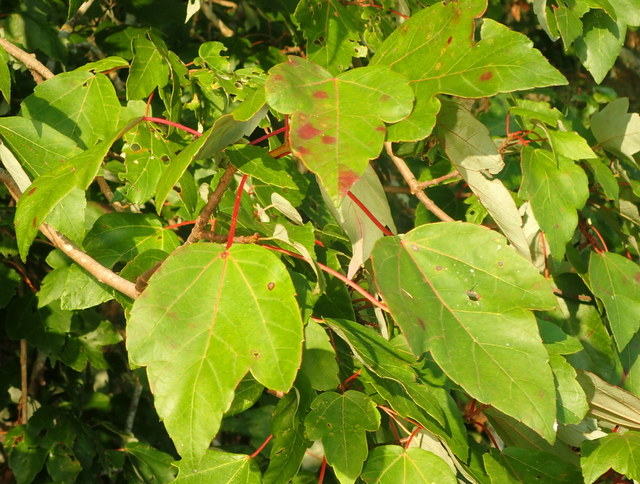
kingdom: Plantae
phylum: Tracheophyta
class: Magnoliopsida
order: Sapindales
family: Sapindaceae
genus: Acer
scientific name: Acer rubrum
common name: Red maple
